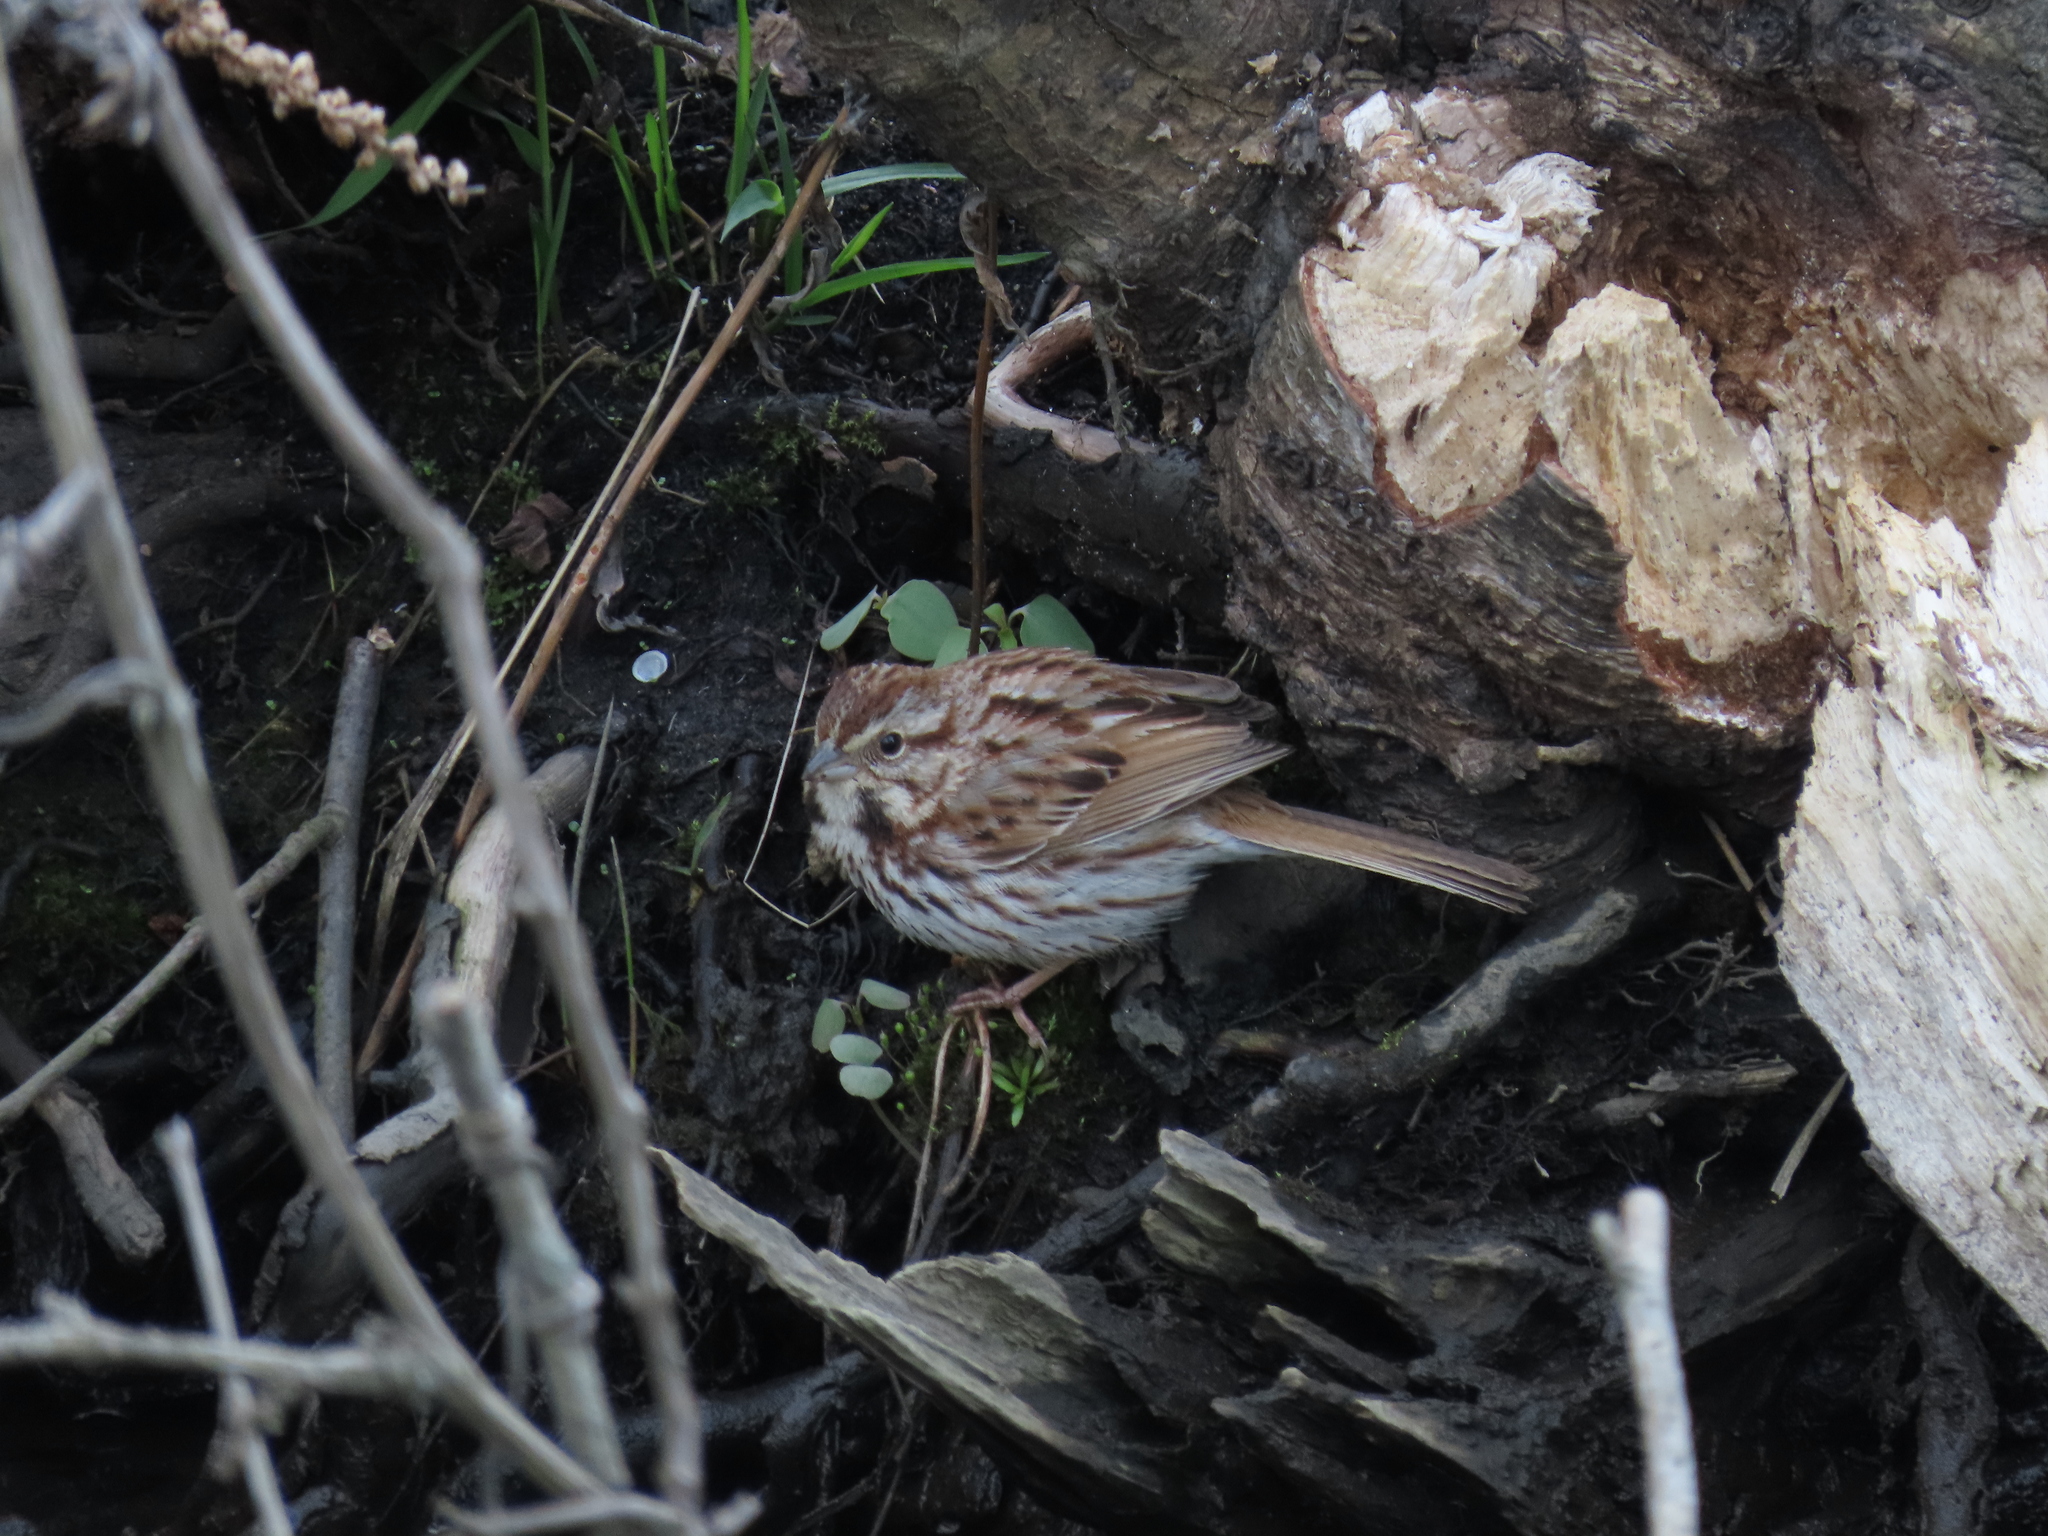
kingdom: Animalia
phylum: Chordata
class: Aves
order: Passeriformes
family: Passerellidae
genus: Melospiza
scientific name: Melospiza melodia
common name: Song sparrow
